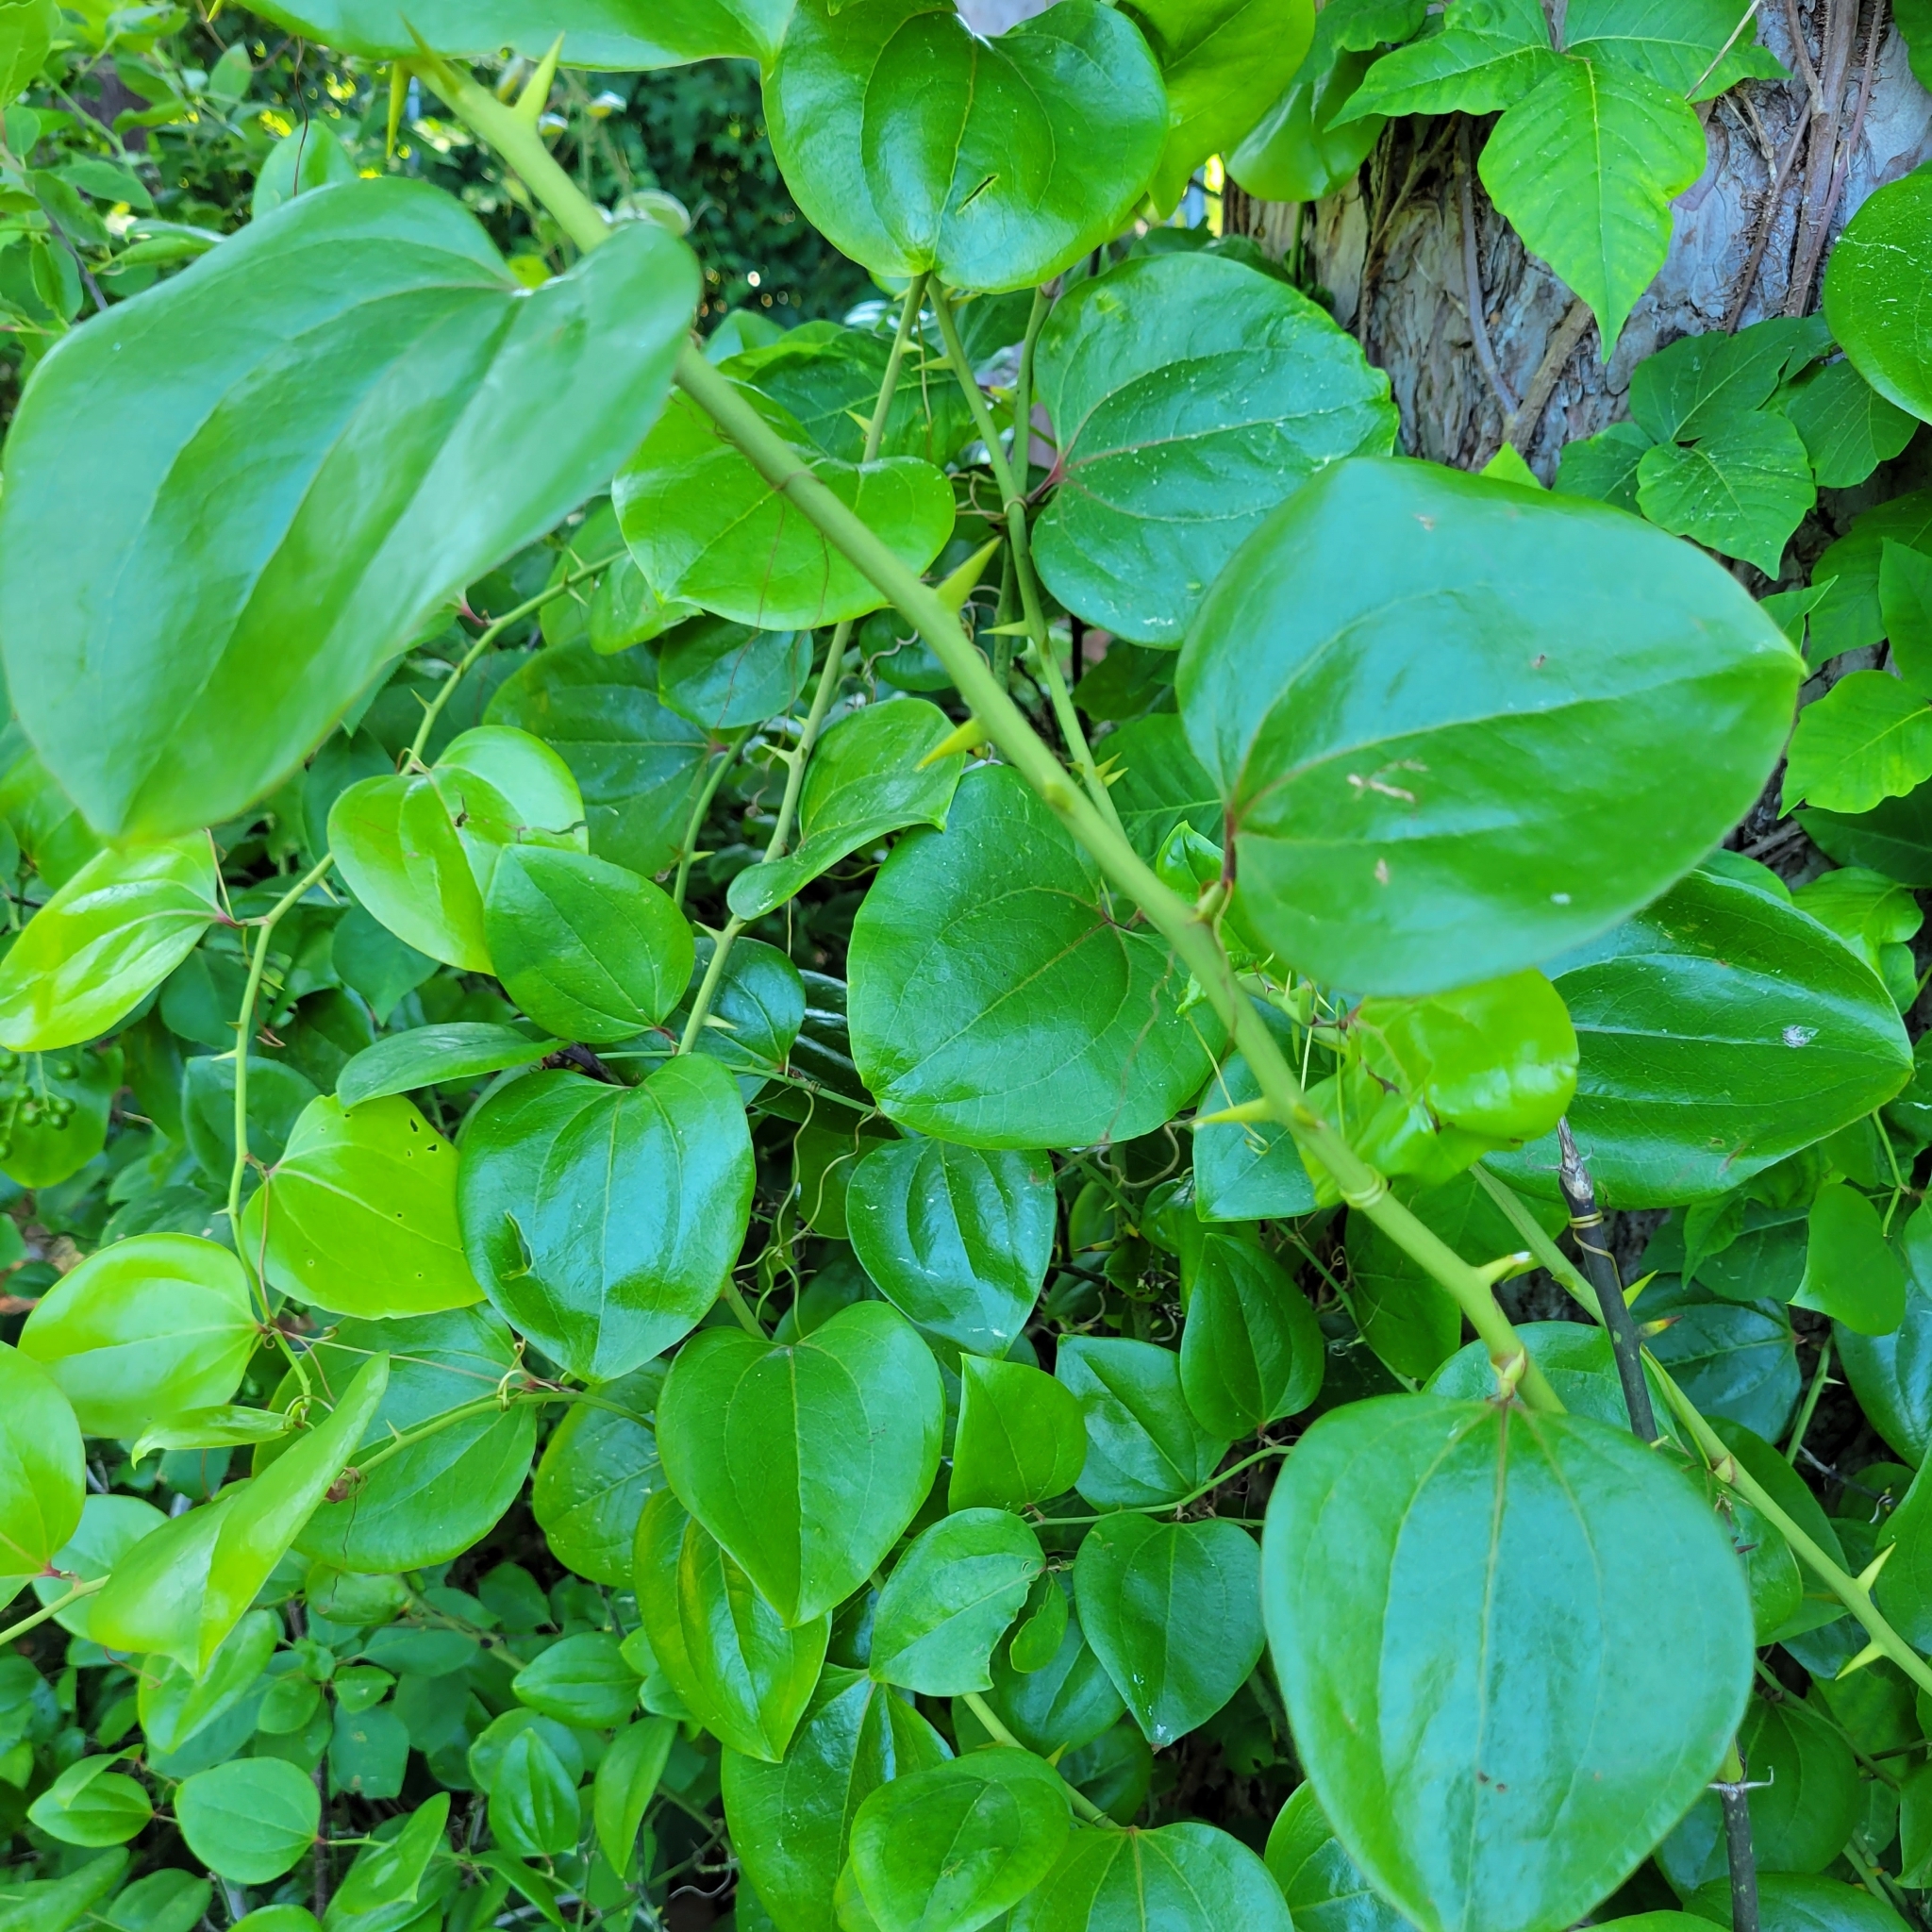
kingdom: Plantae
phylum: Tracheophyta
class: Liliopsida
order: Liliales
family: Smilacaceae
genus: Smilax
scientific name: Smilax rotundifolia
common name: Bullbriar
